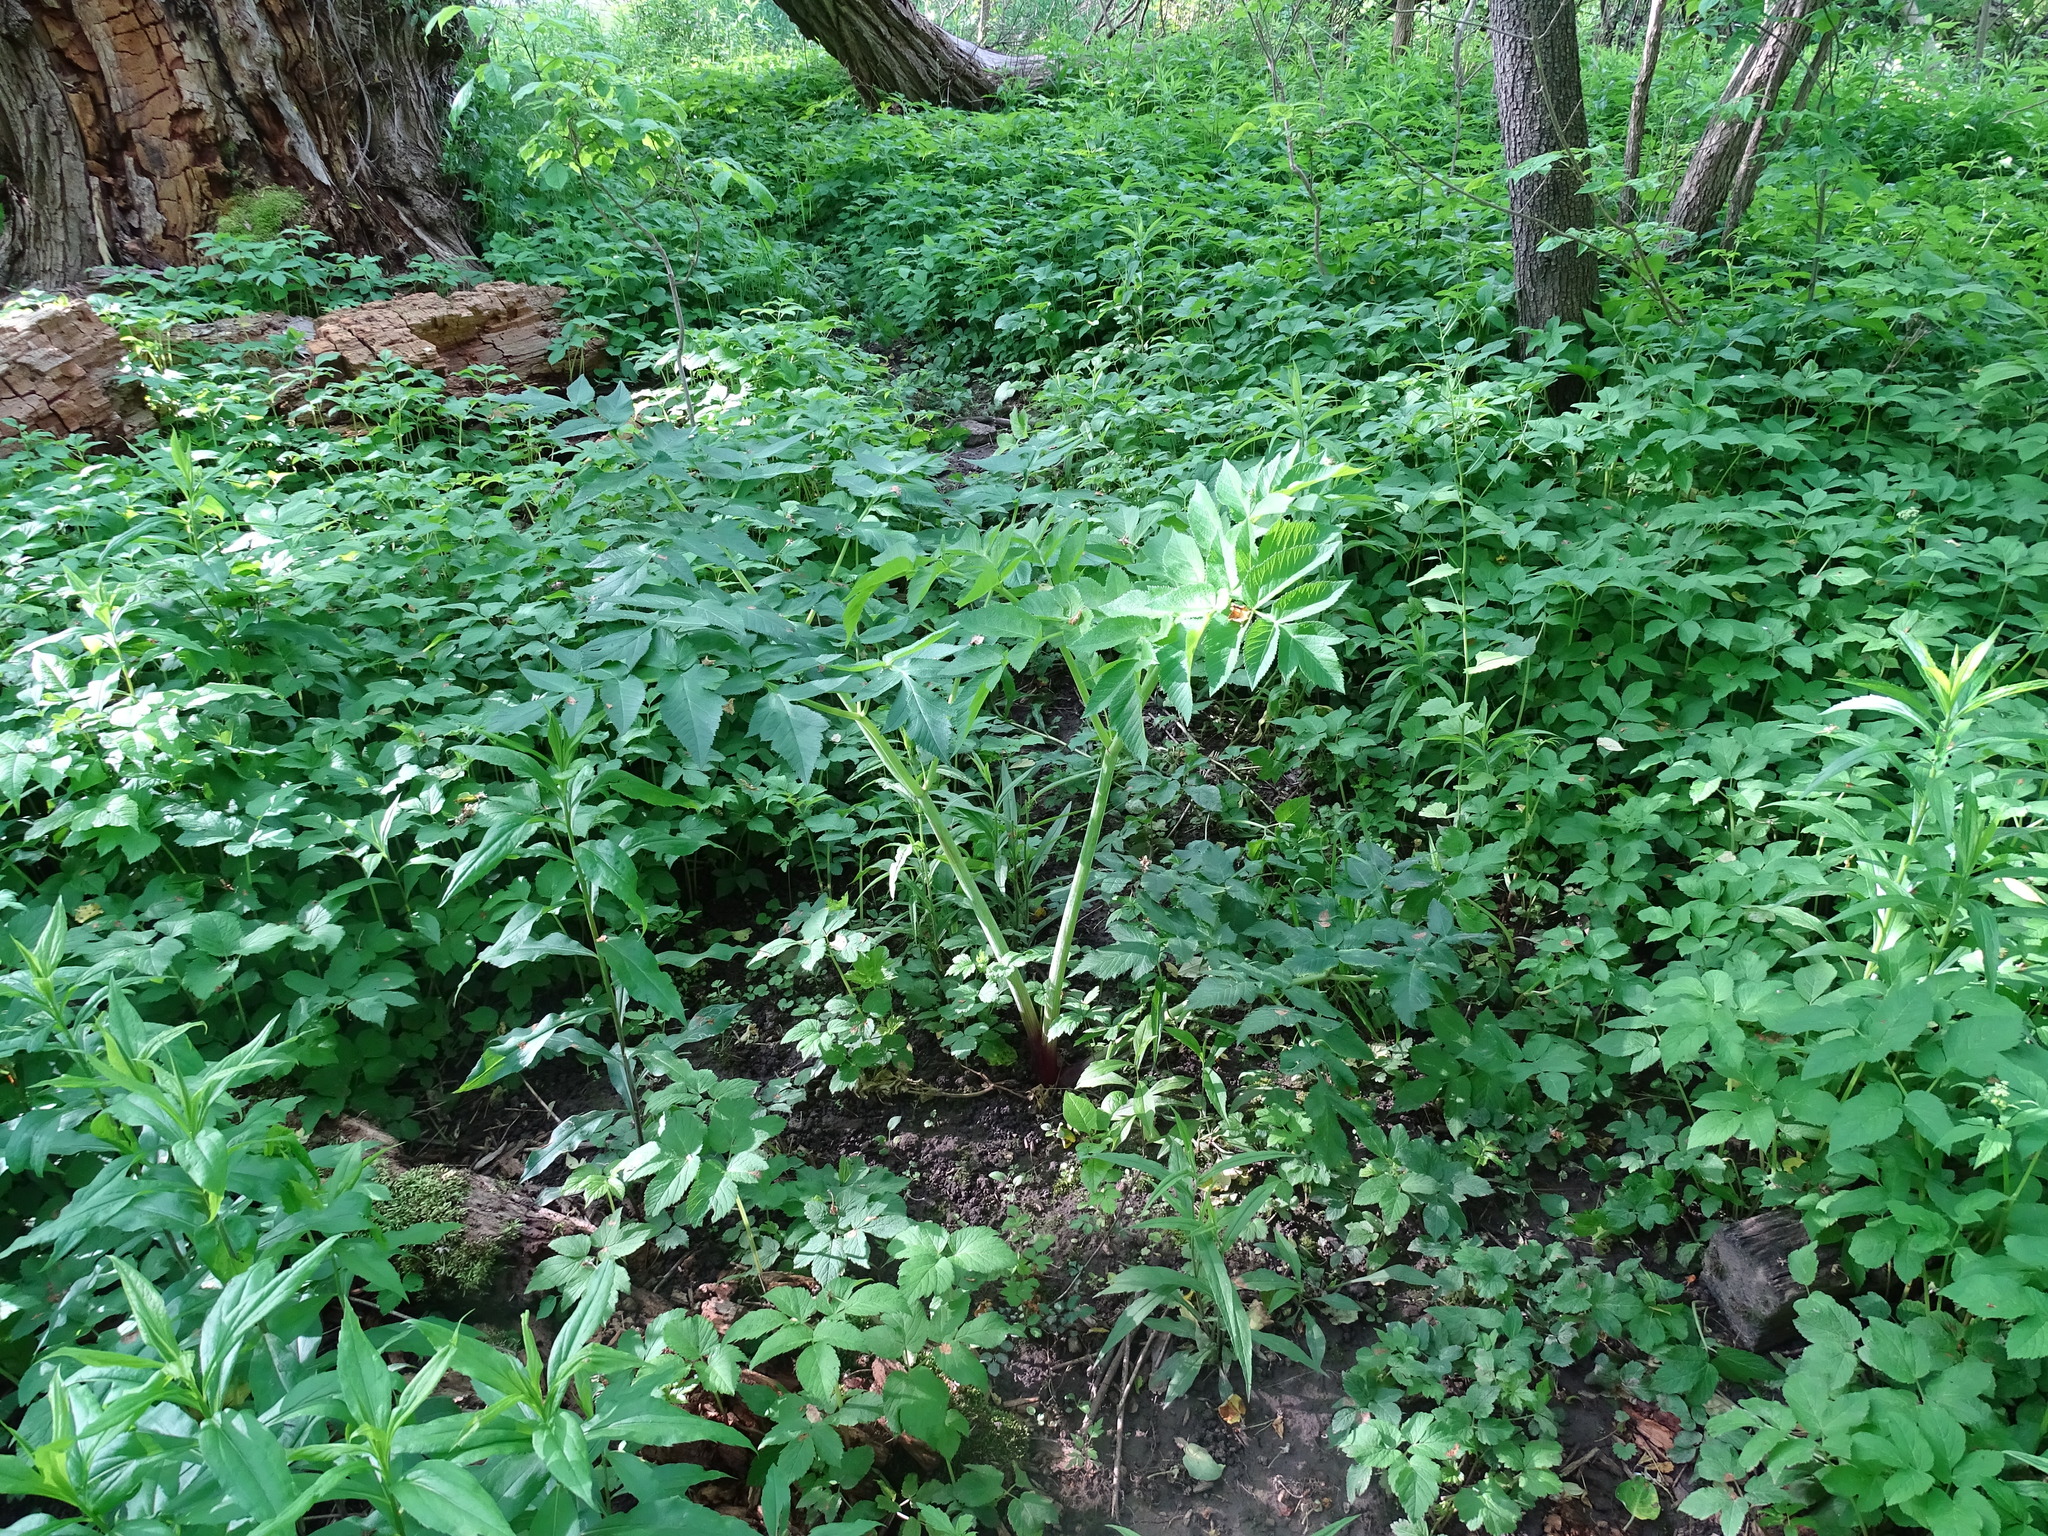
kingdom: Plantae
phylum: Tracheophyta
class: Magnoliopsida
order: Apiales
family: Apiaceae
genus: Angelica
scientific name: Angelica sylvestris
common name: Wild angelica
